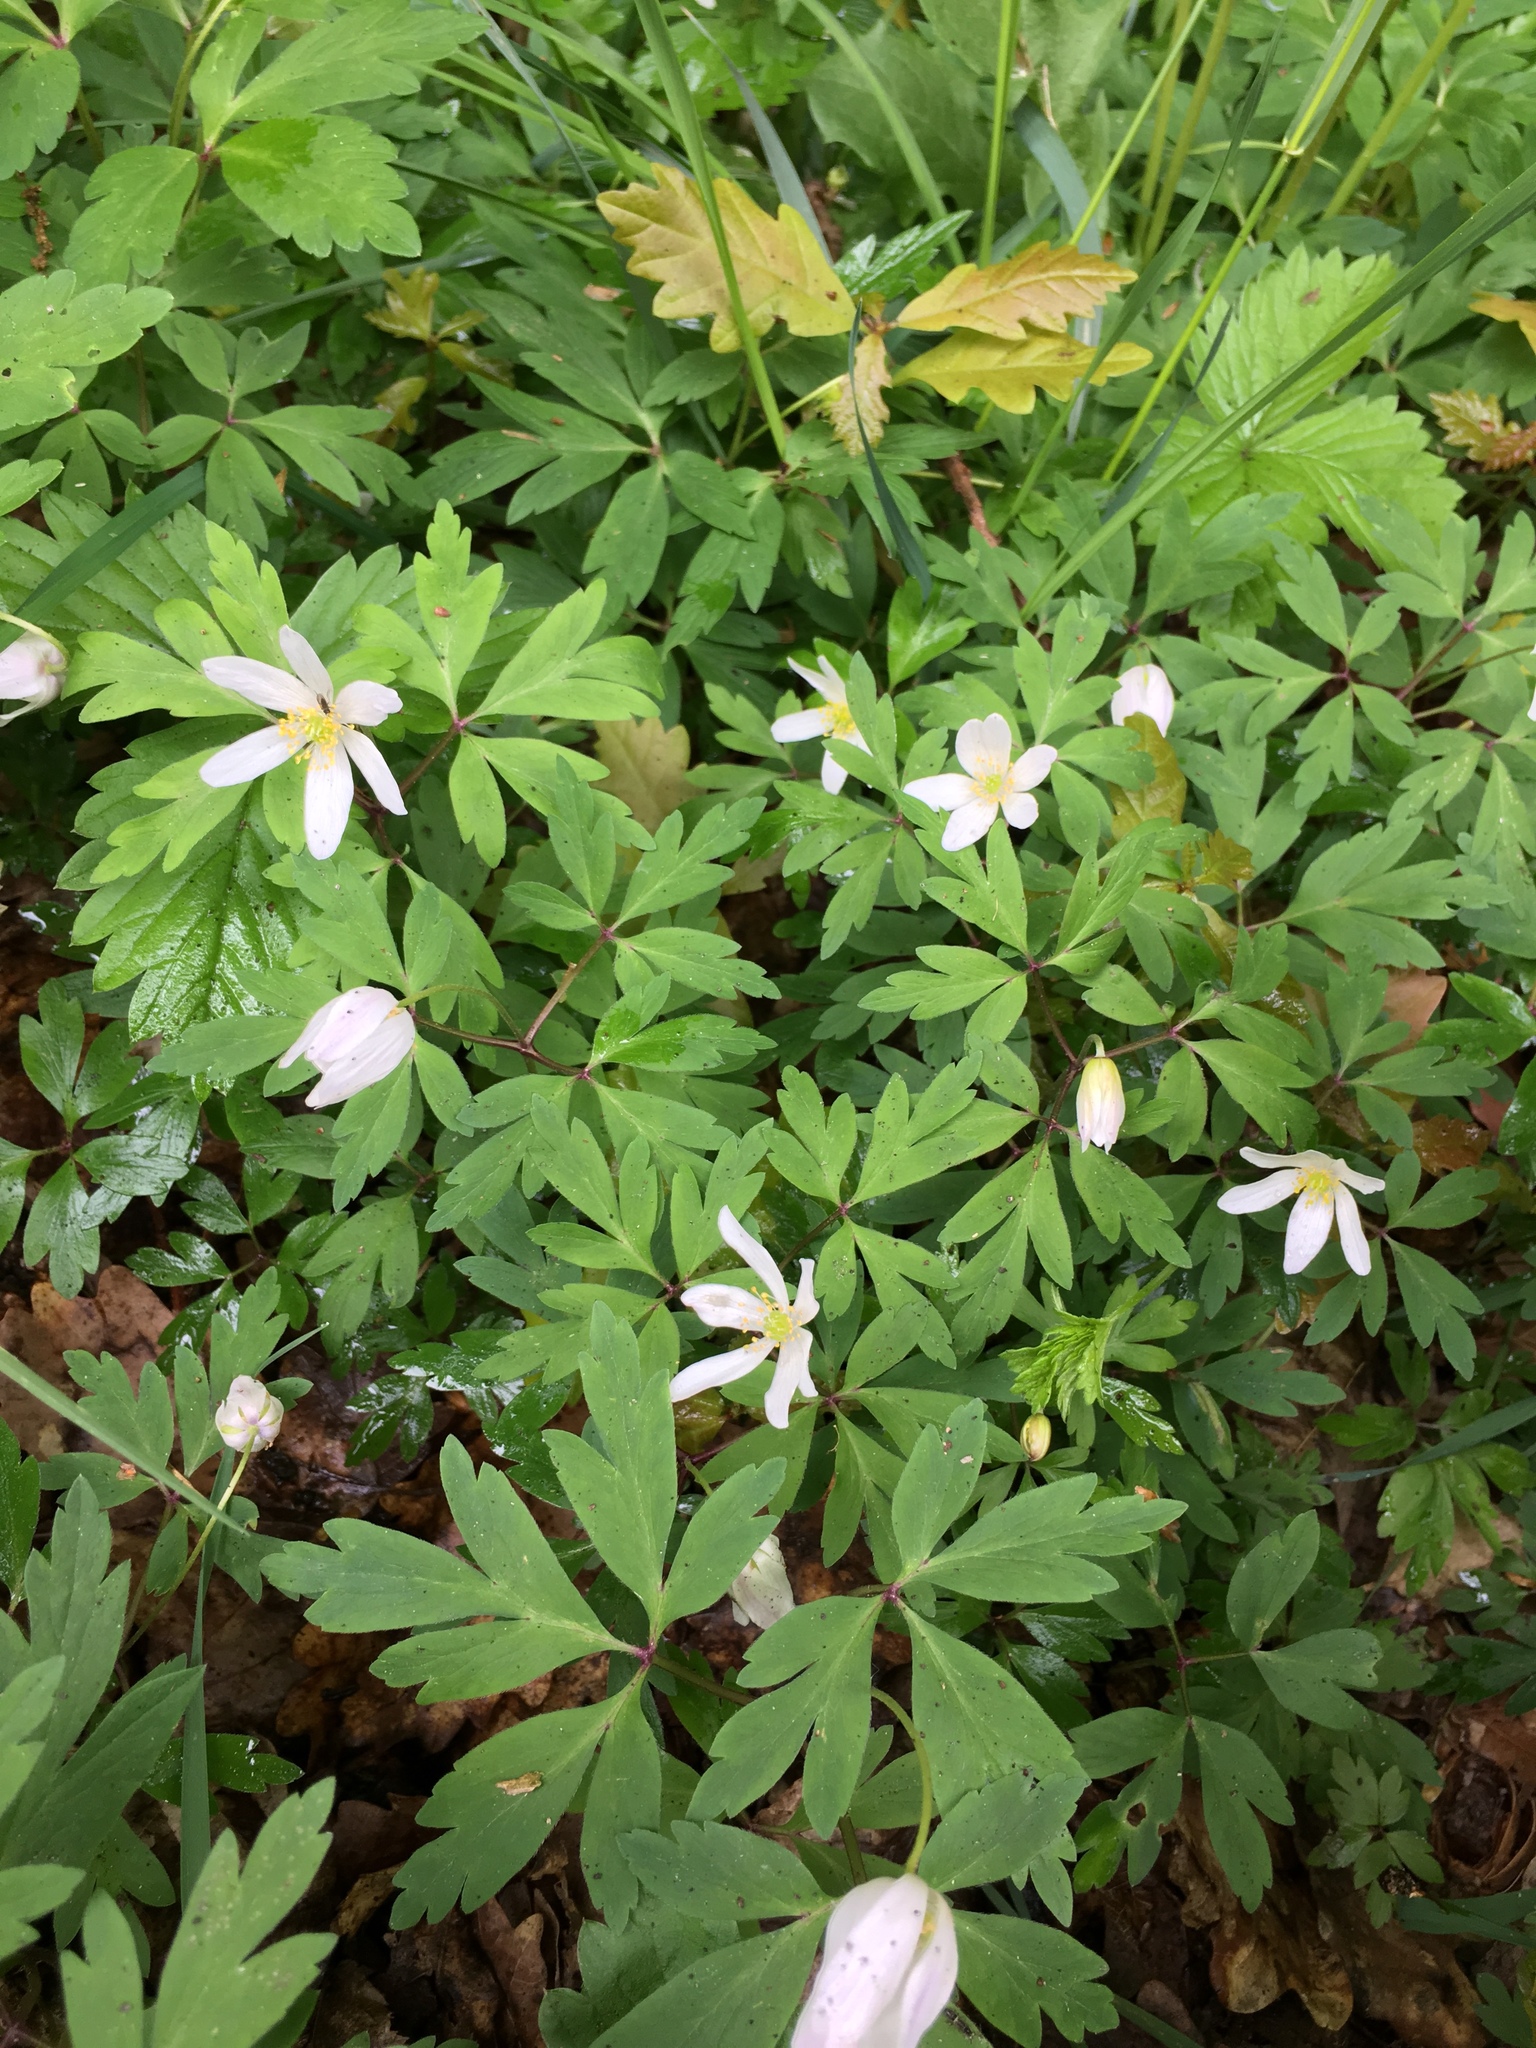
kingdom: Plantae
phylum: Tracheophyta
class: Magnoliopsida
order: Ranunculales
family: Ranunculaceae
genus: Anemone
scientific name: Anemone nemorosa
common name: Wood anemone
